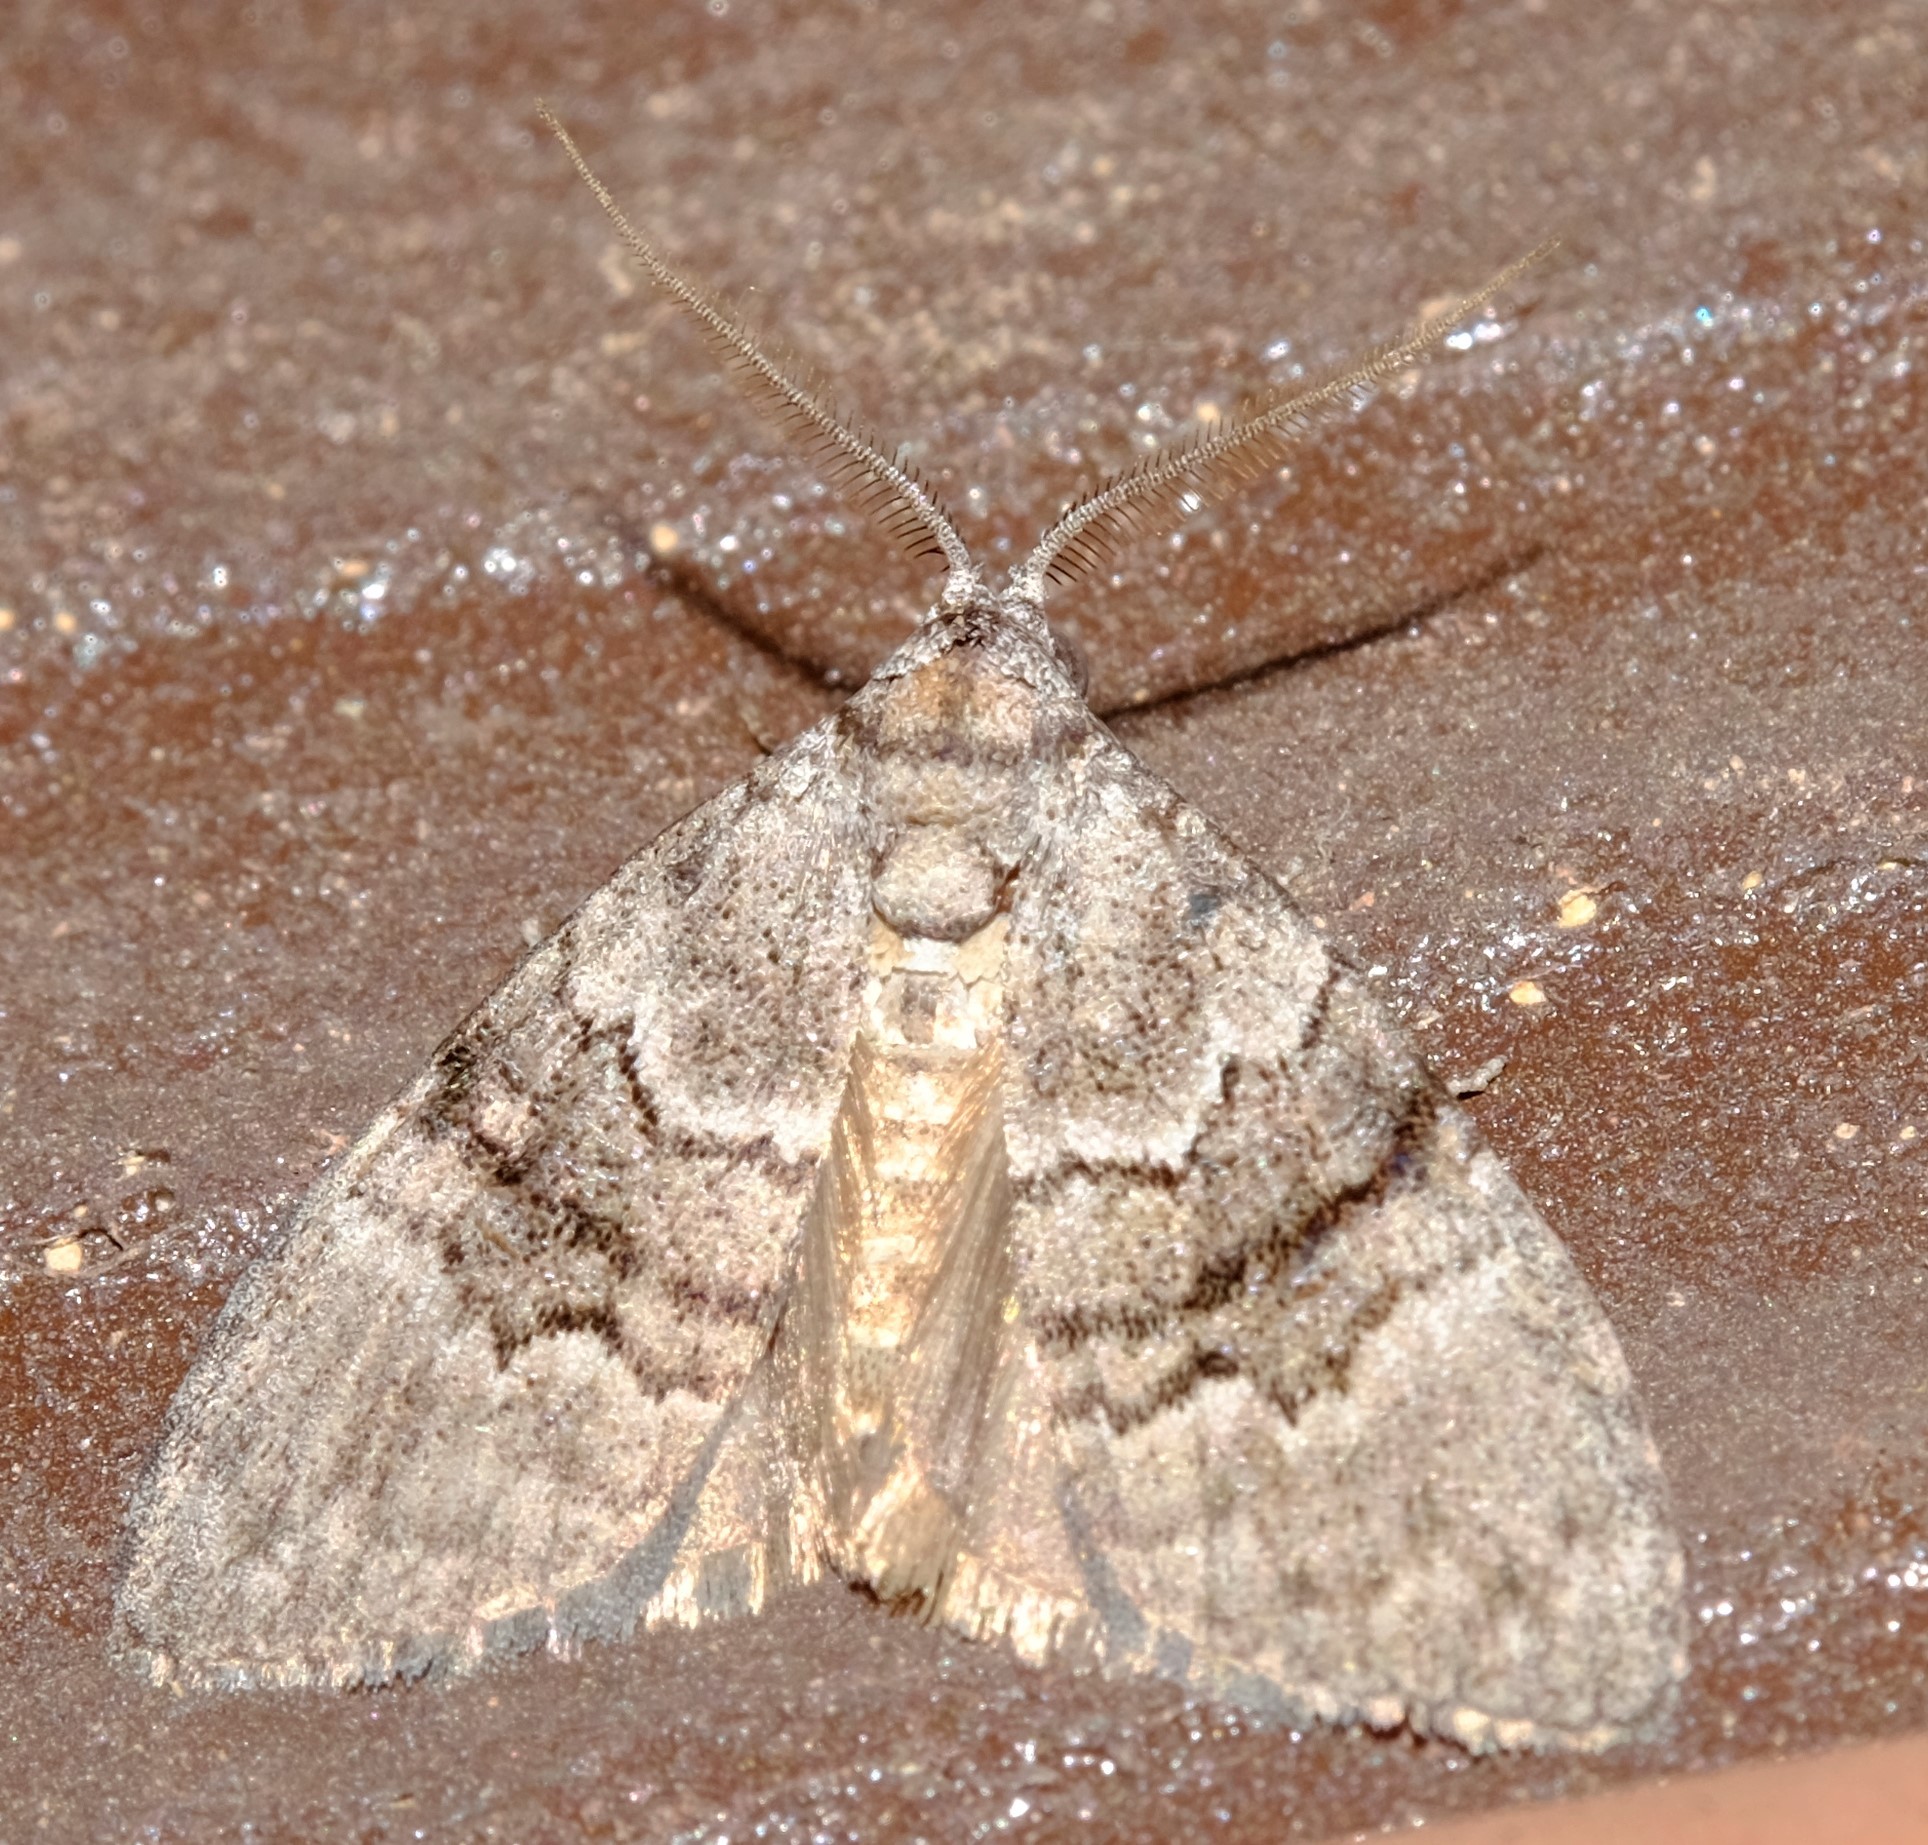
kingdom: Animalia
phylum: Arthropoda
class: Insecta
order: Lepidoptera
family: Nolidae
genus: Uraba
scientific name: Uraba lugens
